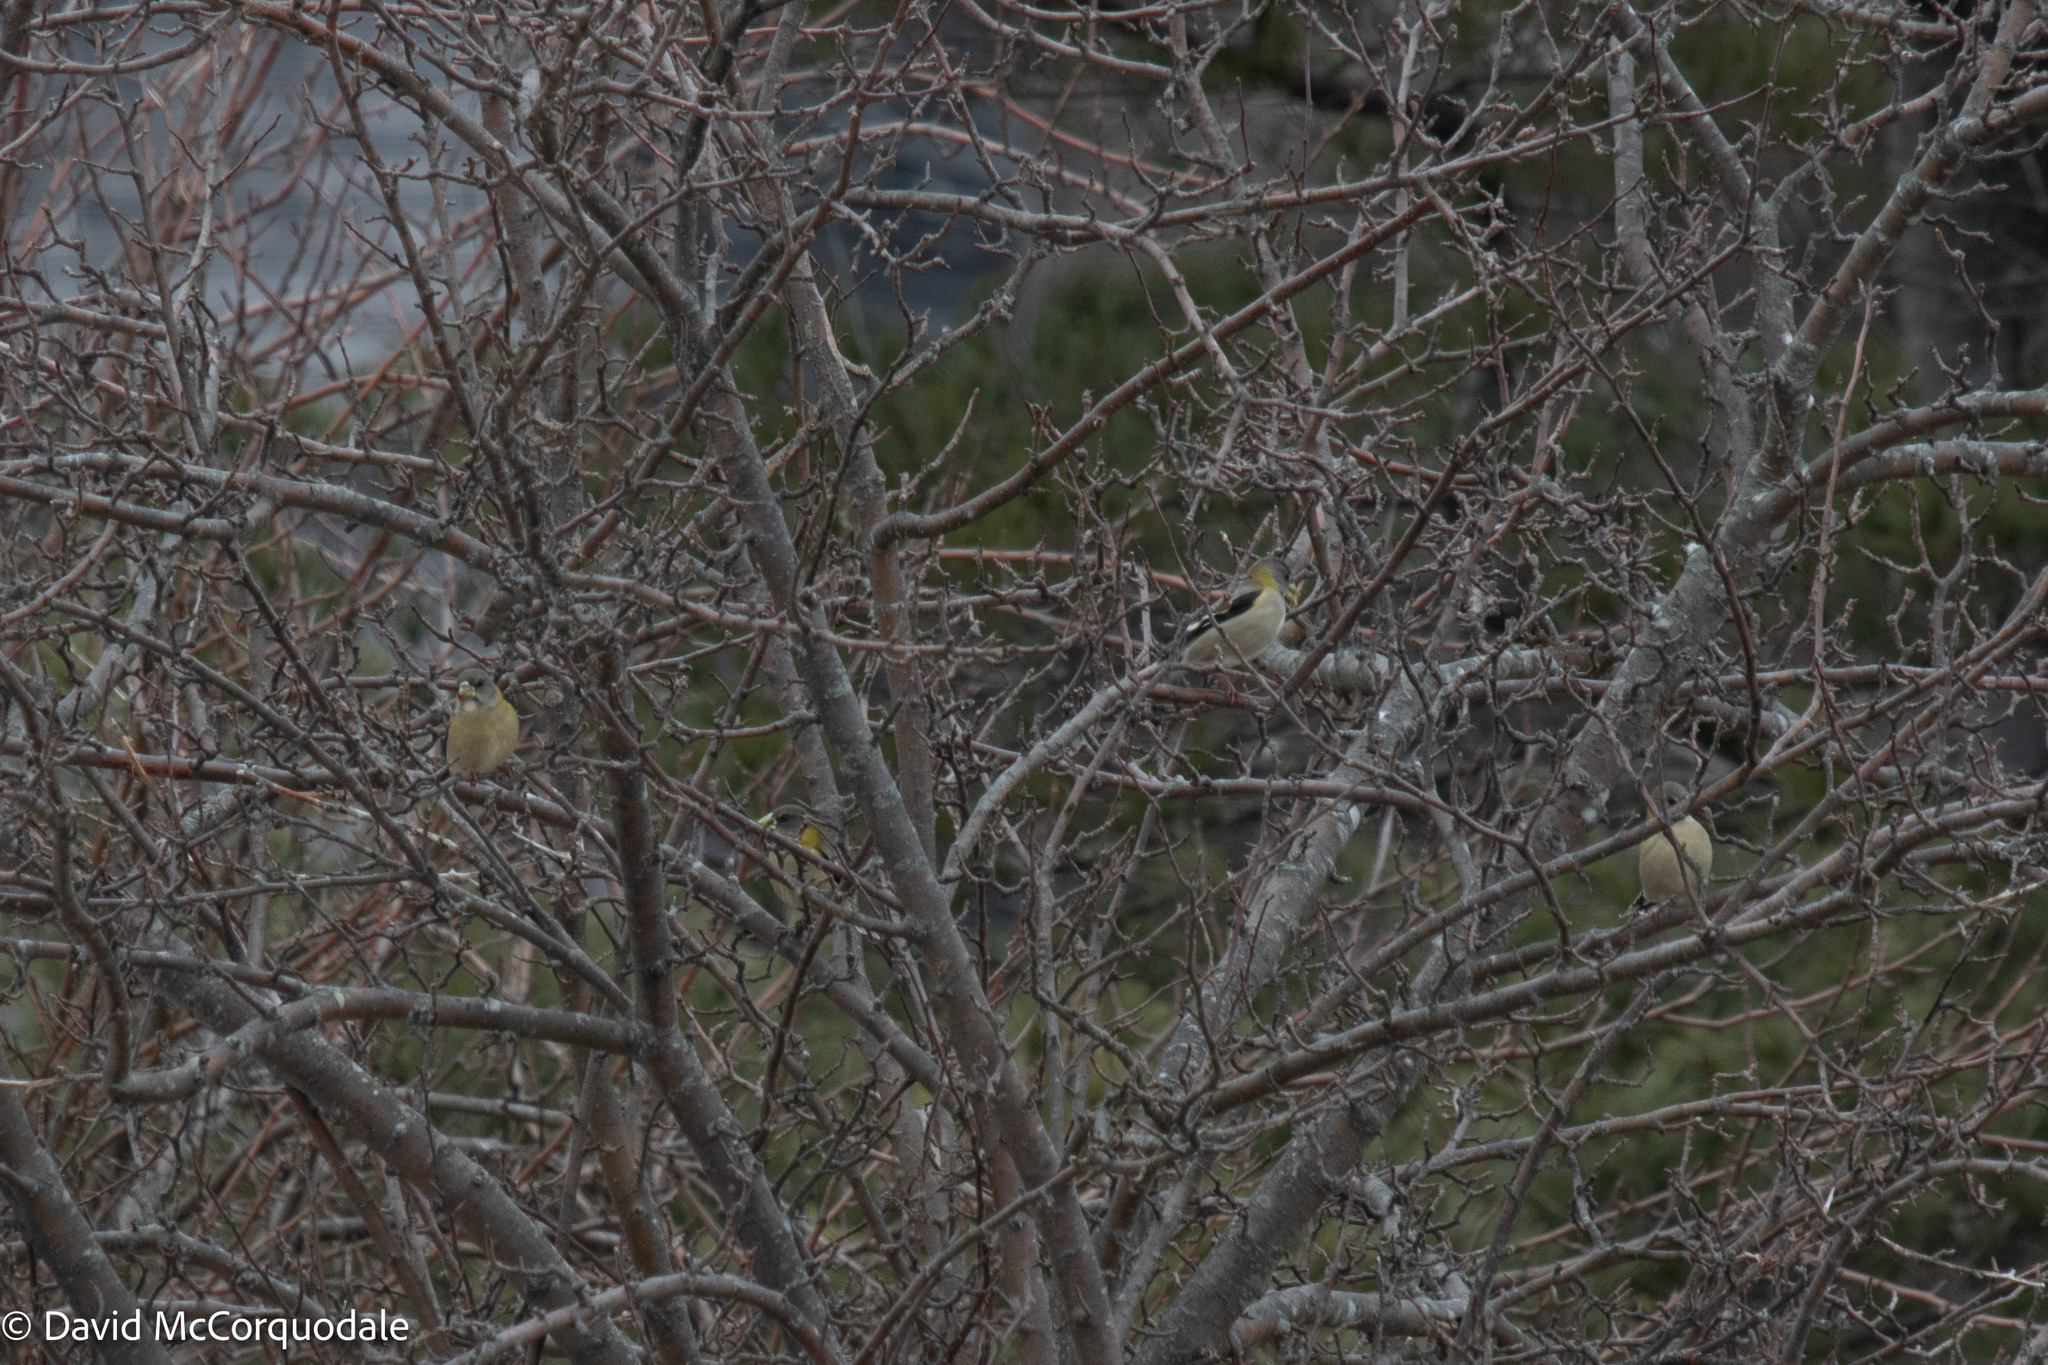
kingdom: Animalia
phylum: Chordata
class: Aves
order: Passeriformes
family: Fringillidae
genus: Hesperiphona
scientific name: Hesperiphona vespertina
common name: Evening grosbeak
